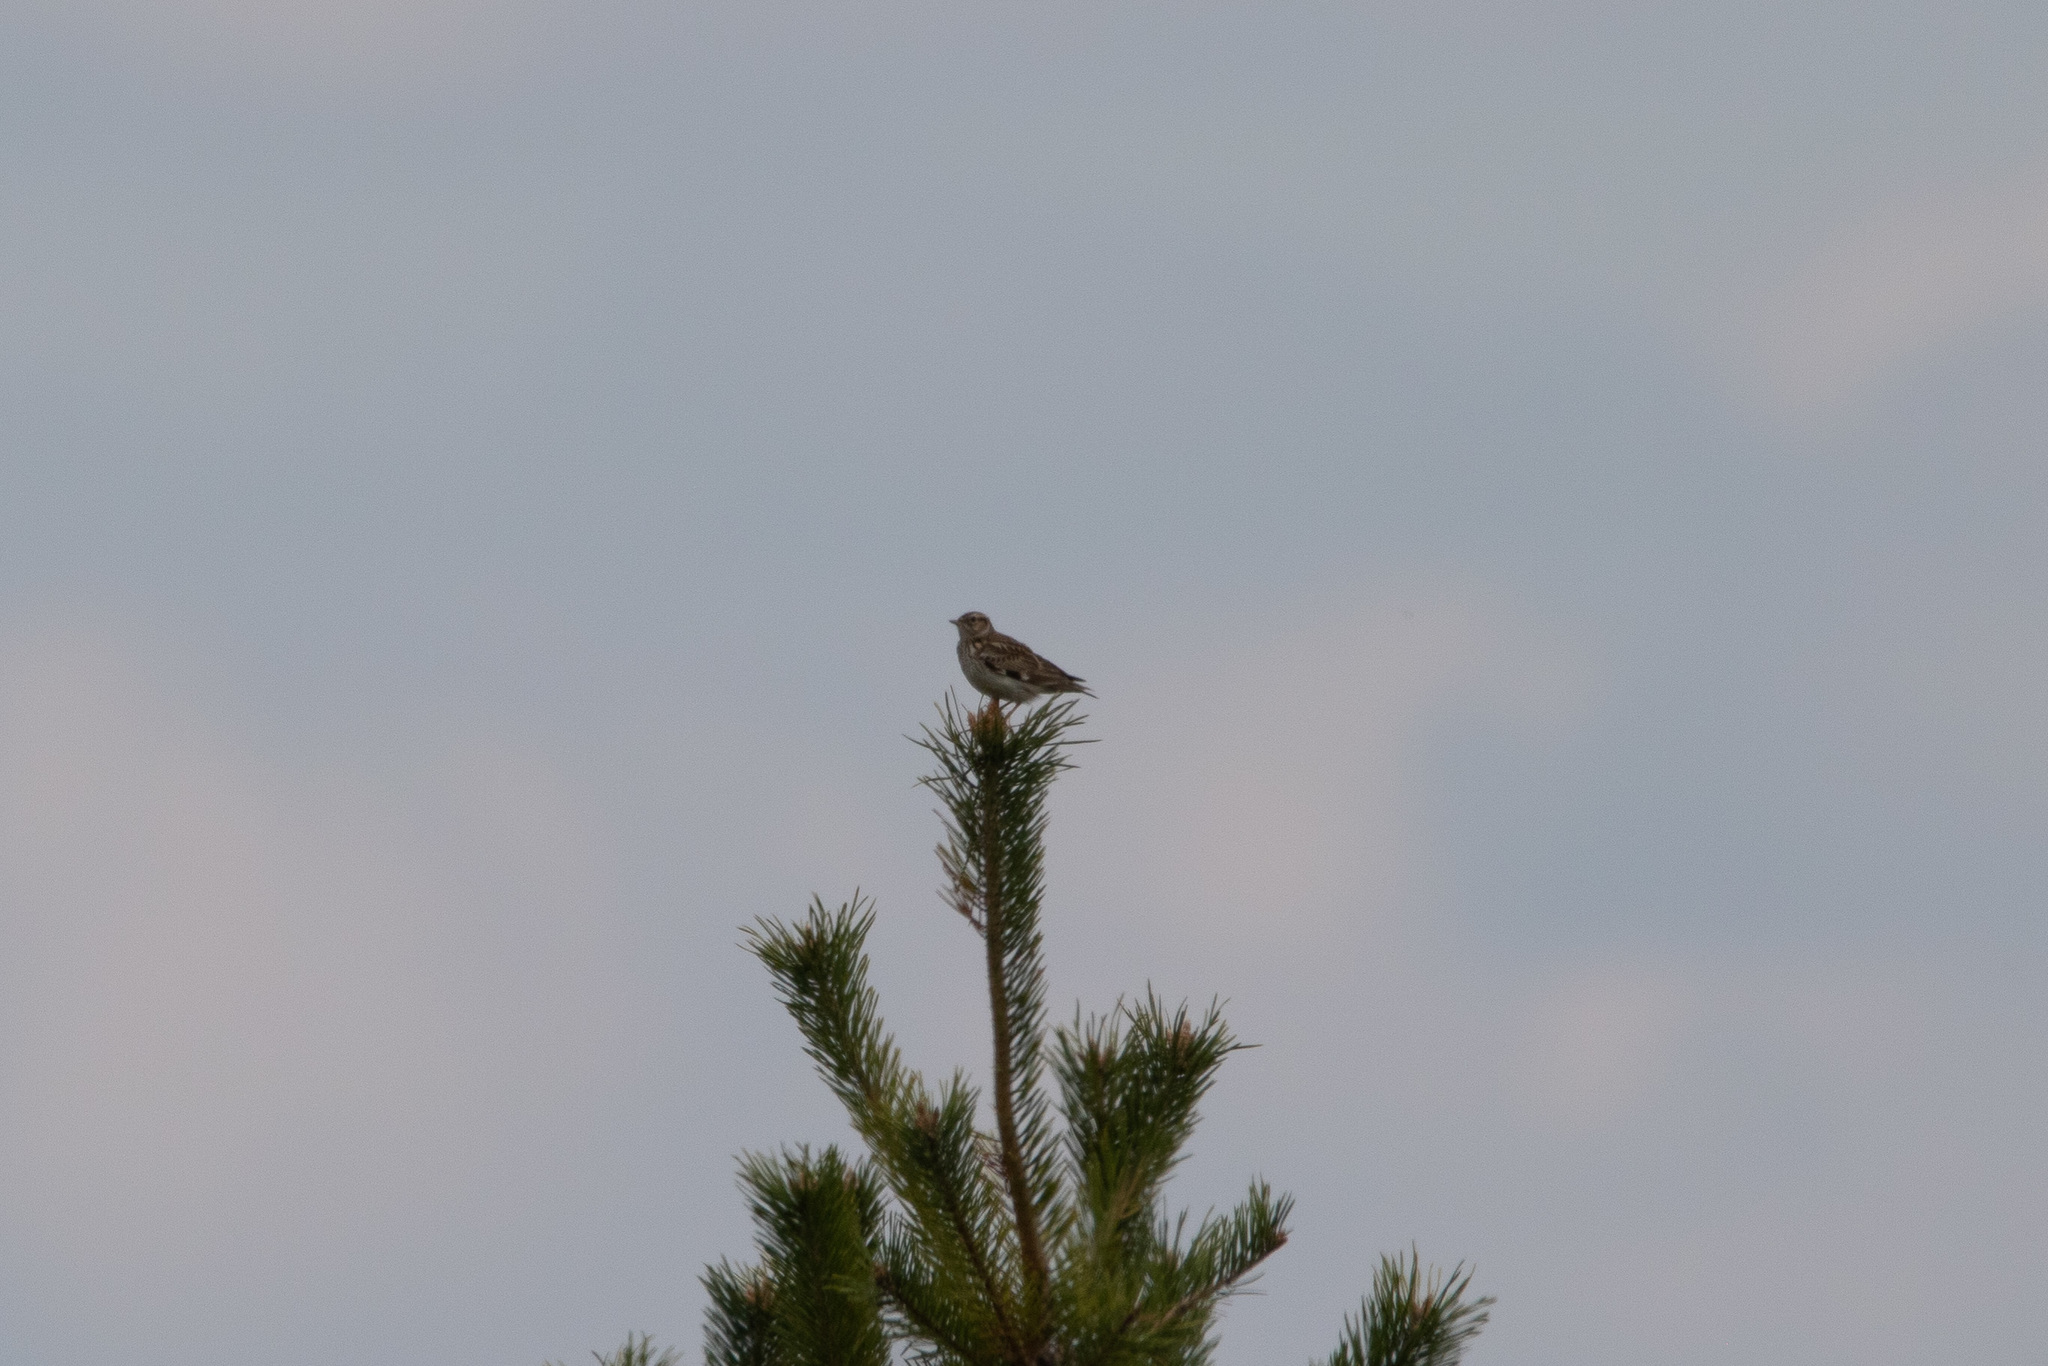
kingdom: Animalia
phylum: Chordata
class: Aves
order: Passeriformes
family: Alaudidae
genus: Lullula
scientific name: Lullula arborea
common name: Woodlark
